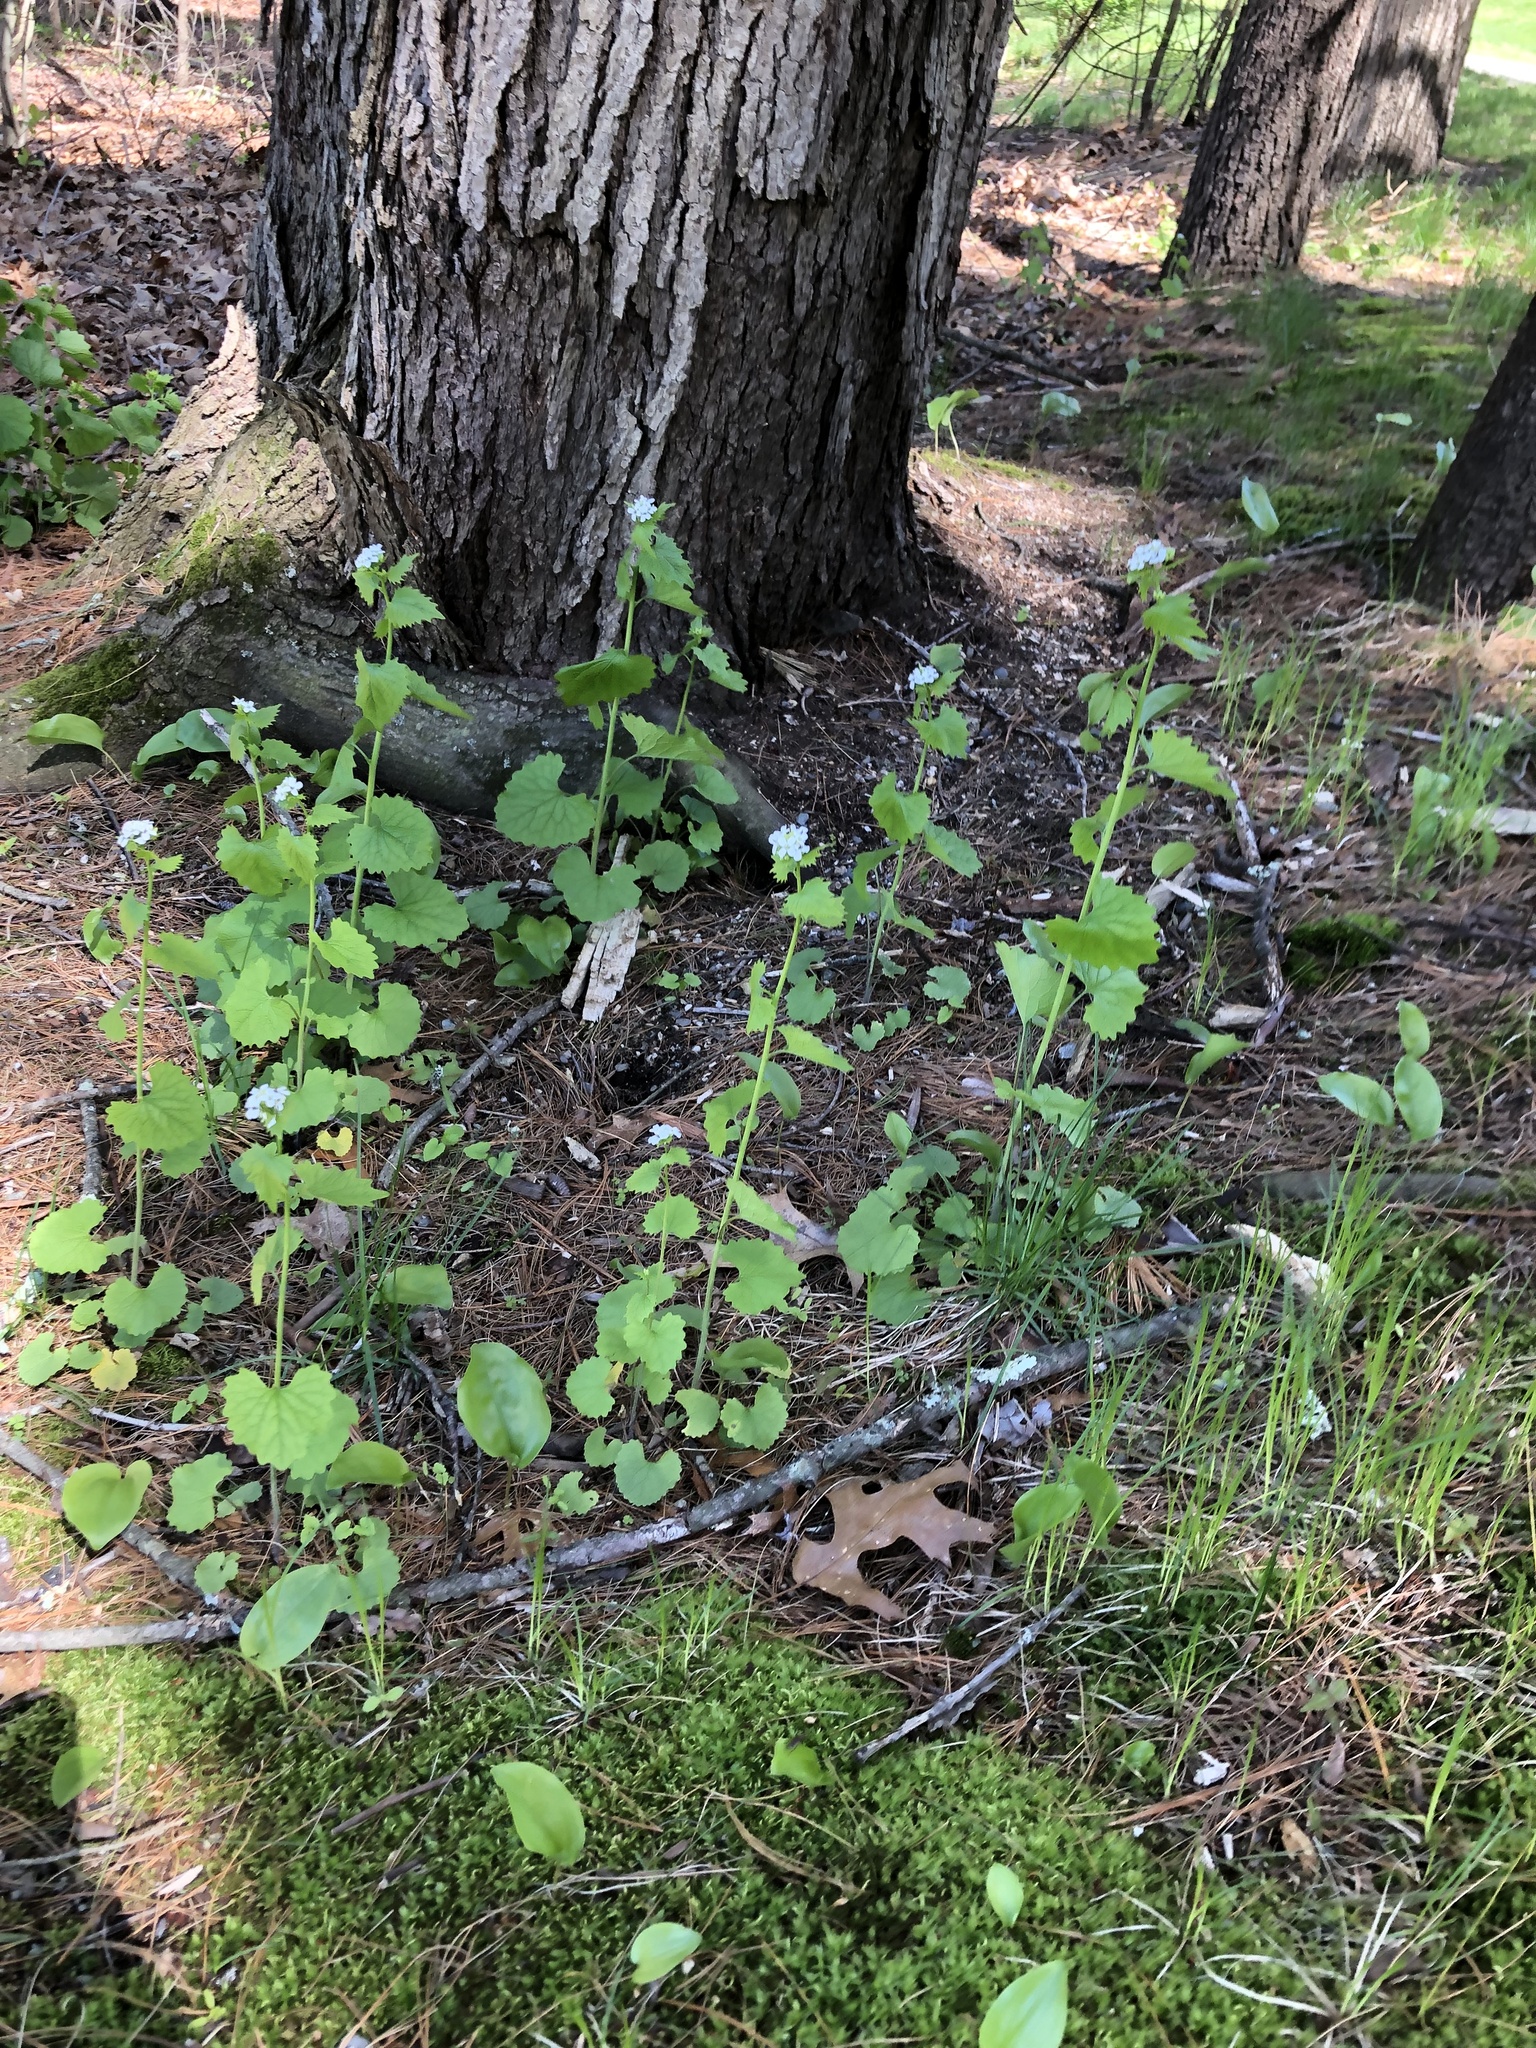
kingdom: Plantae
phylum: Tracheophyta
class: Magnoliopsida
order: Brassicales
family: Brassicaceae
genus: Alliaria
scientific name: Alliaria petiolata
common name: Garlic mustard
